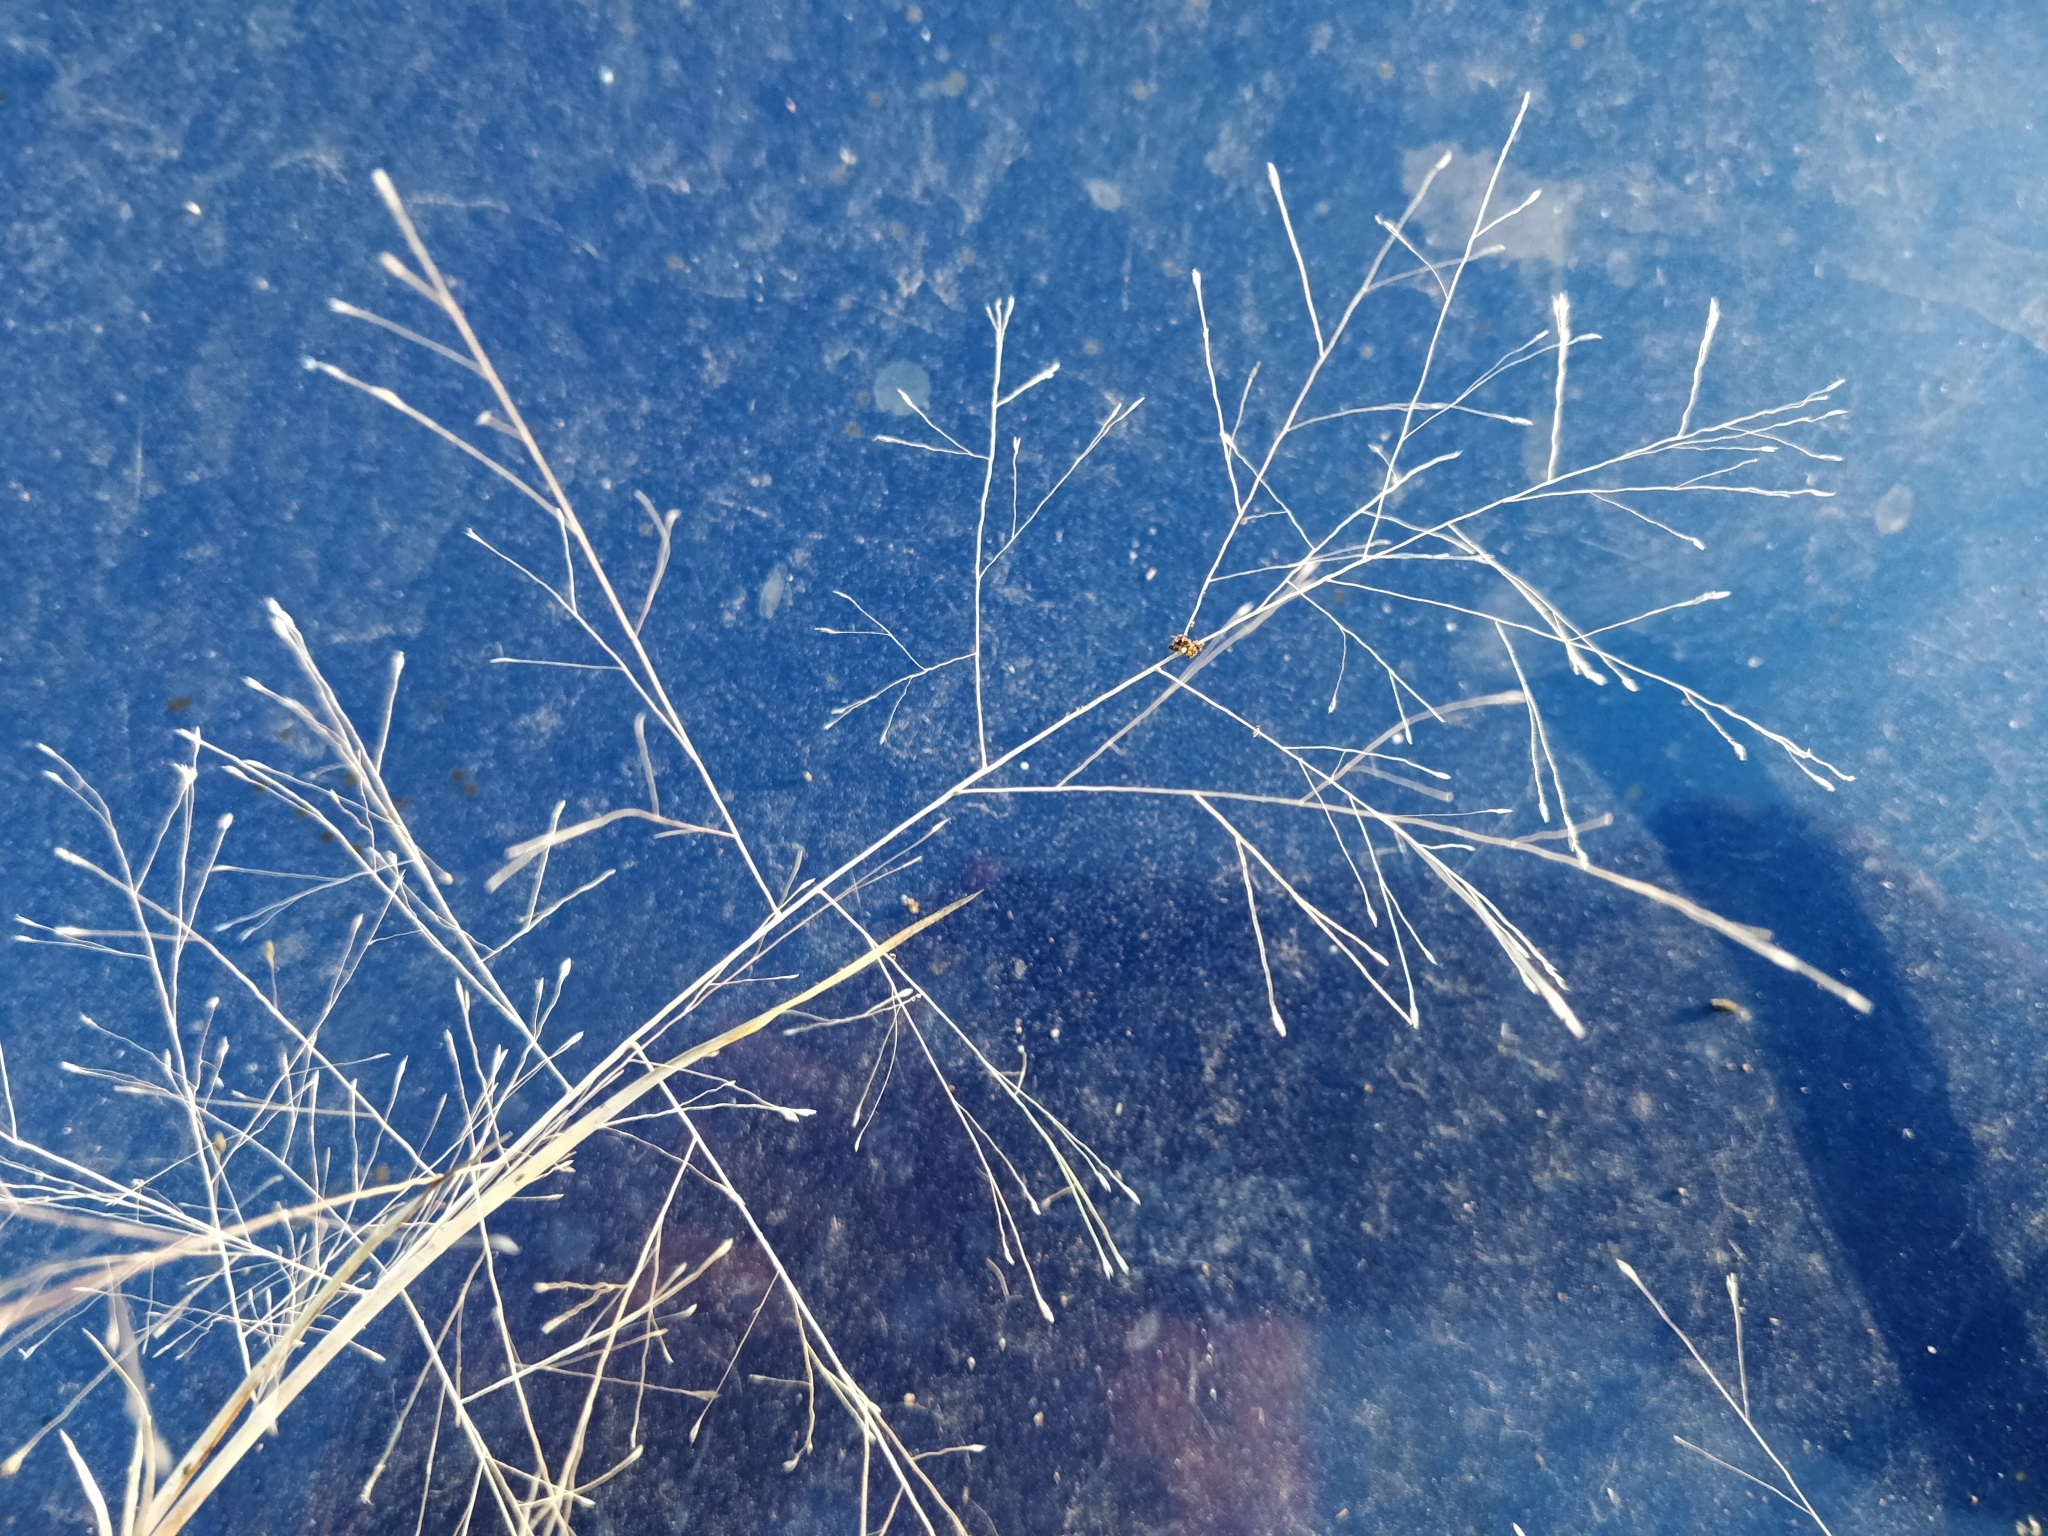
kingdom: Plantae
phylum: Tracheophyta
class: Liliopsida
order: Poales
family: Poaceae
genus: Muhlenbergia
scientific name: Muhlenbergia asperifolia
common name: Alkali muhly
